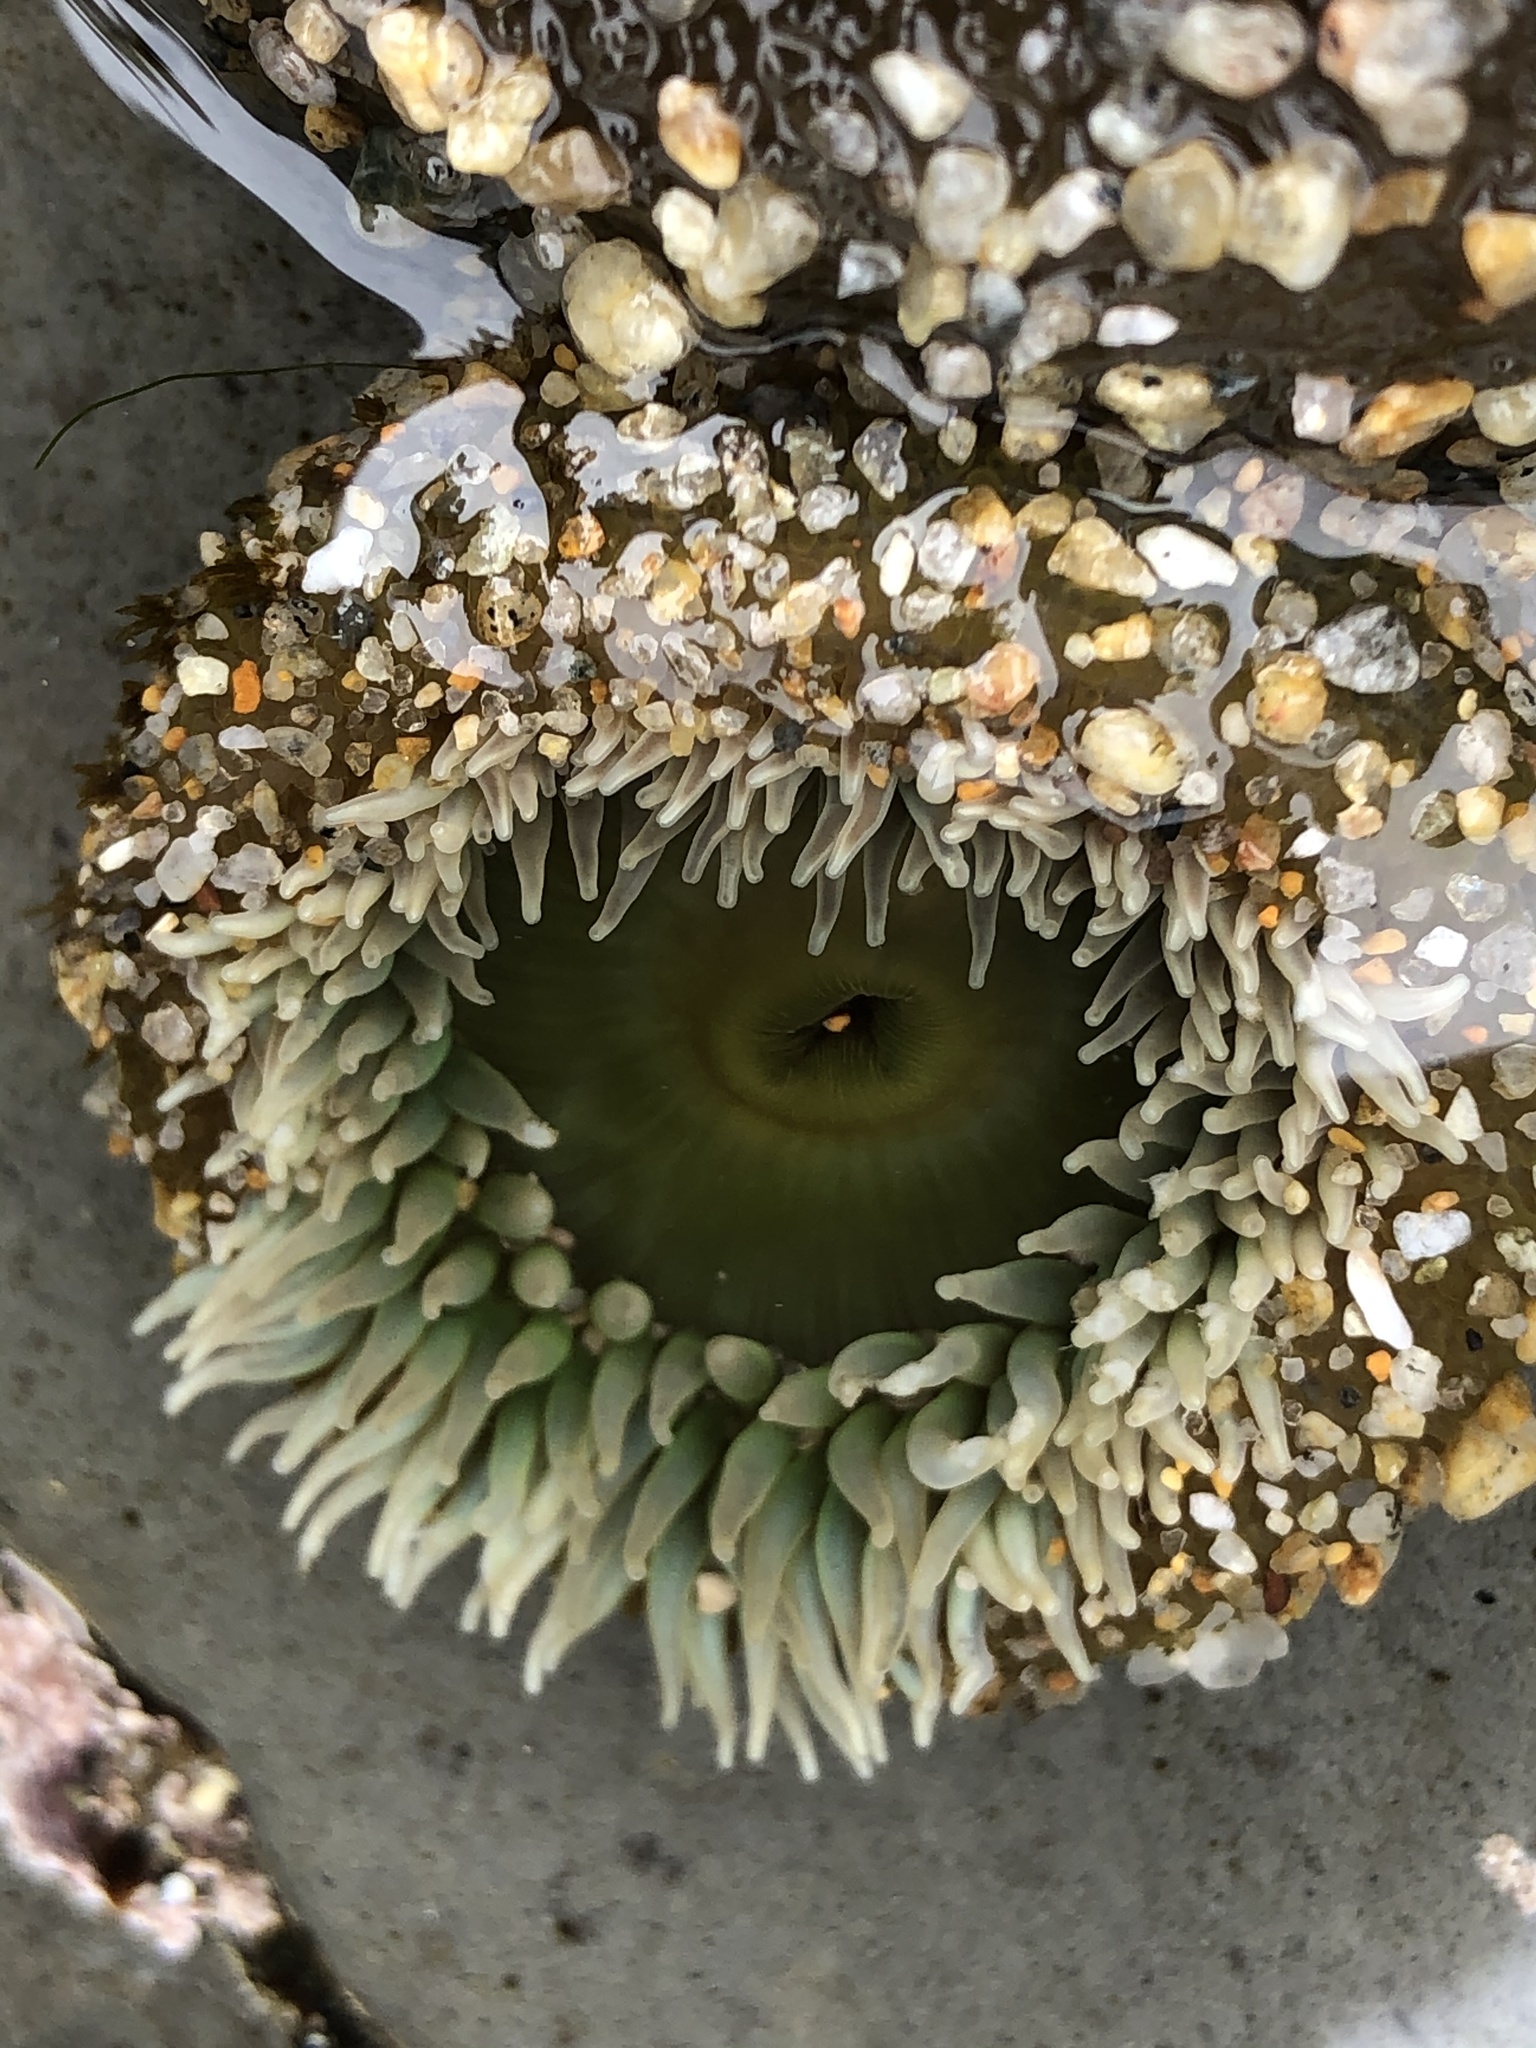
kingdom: Animalia
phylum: Cnidaria
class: Anthozoa
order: Actiniaria
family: Actiniidae
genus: Anthopleura
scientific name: Anthopleura xanthogrammica
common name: Giant green anemone
